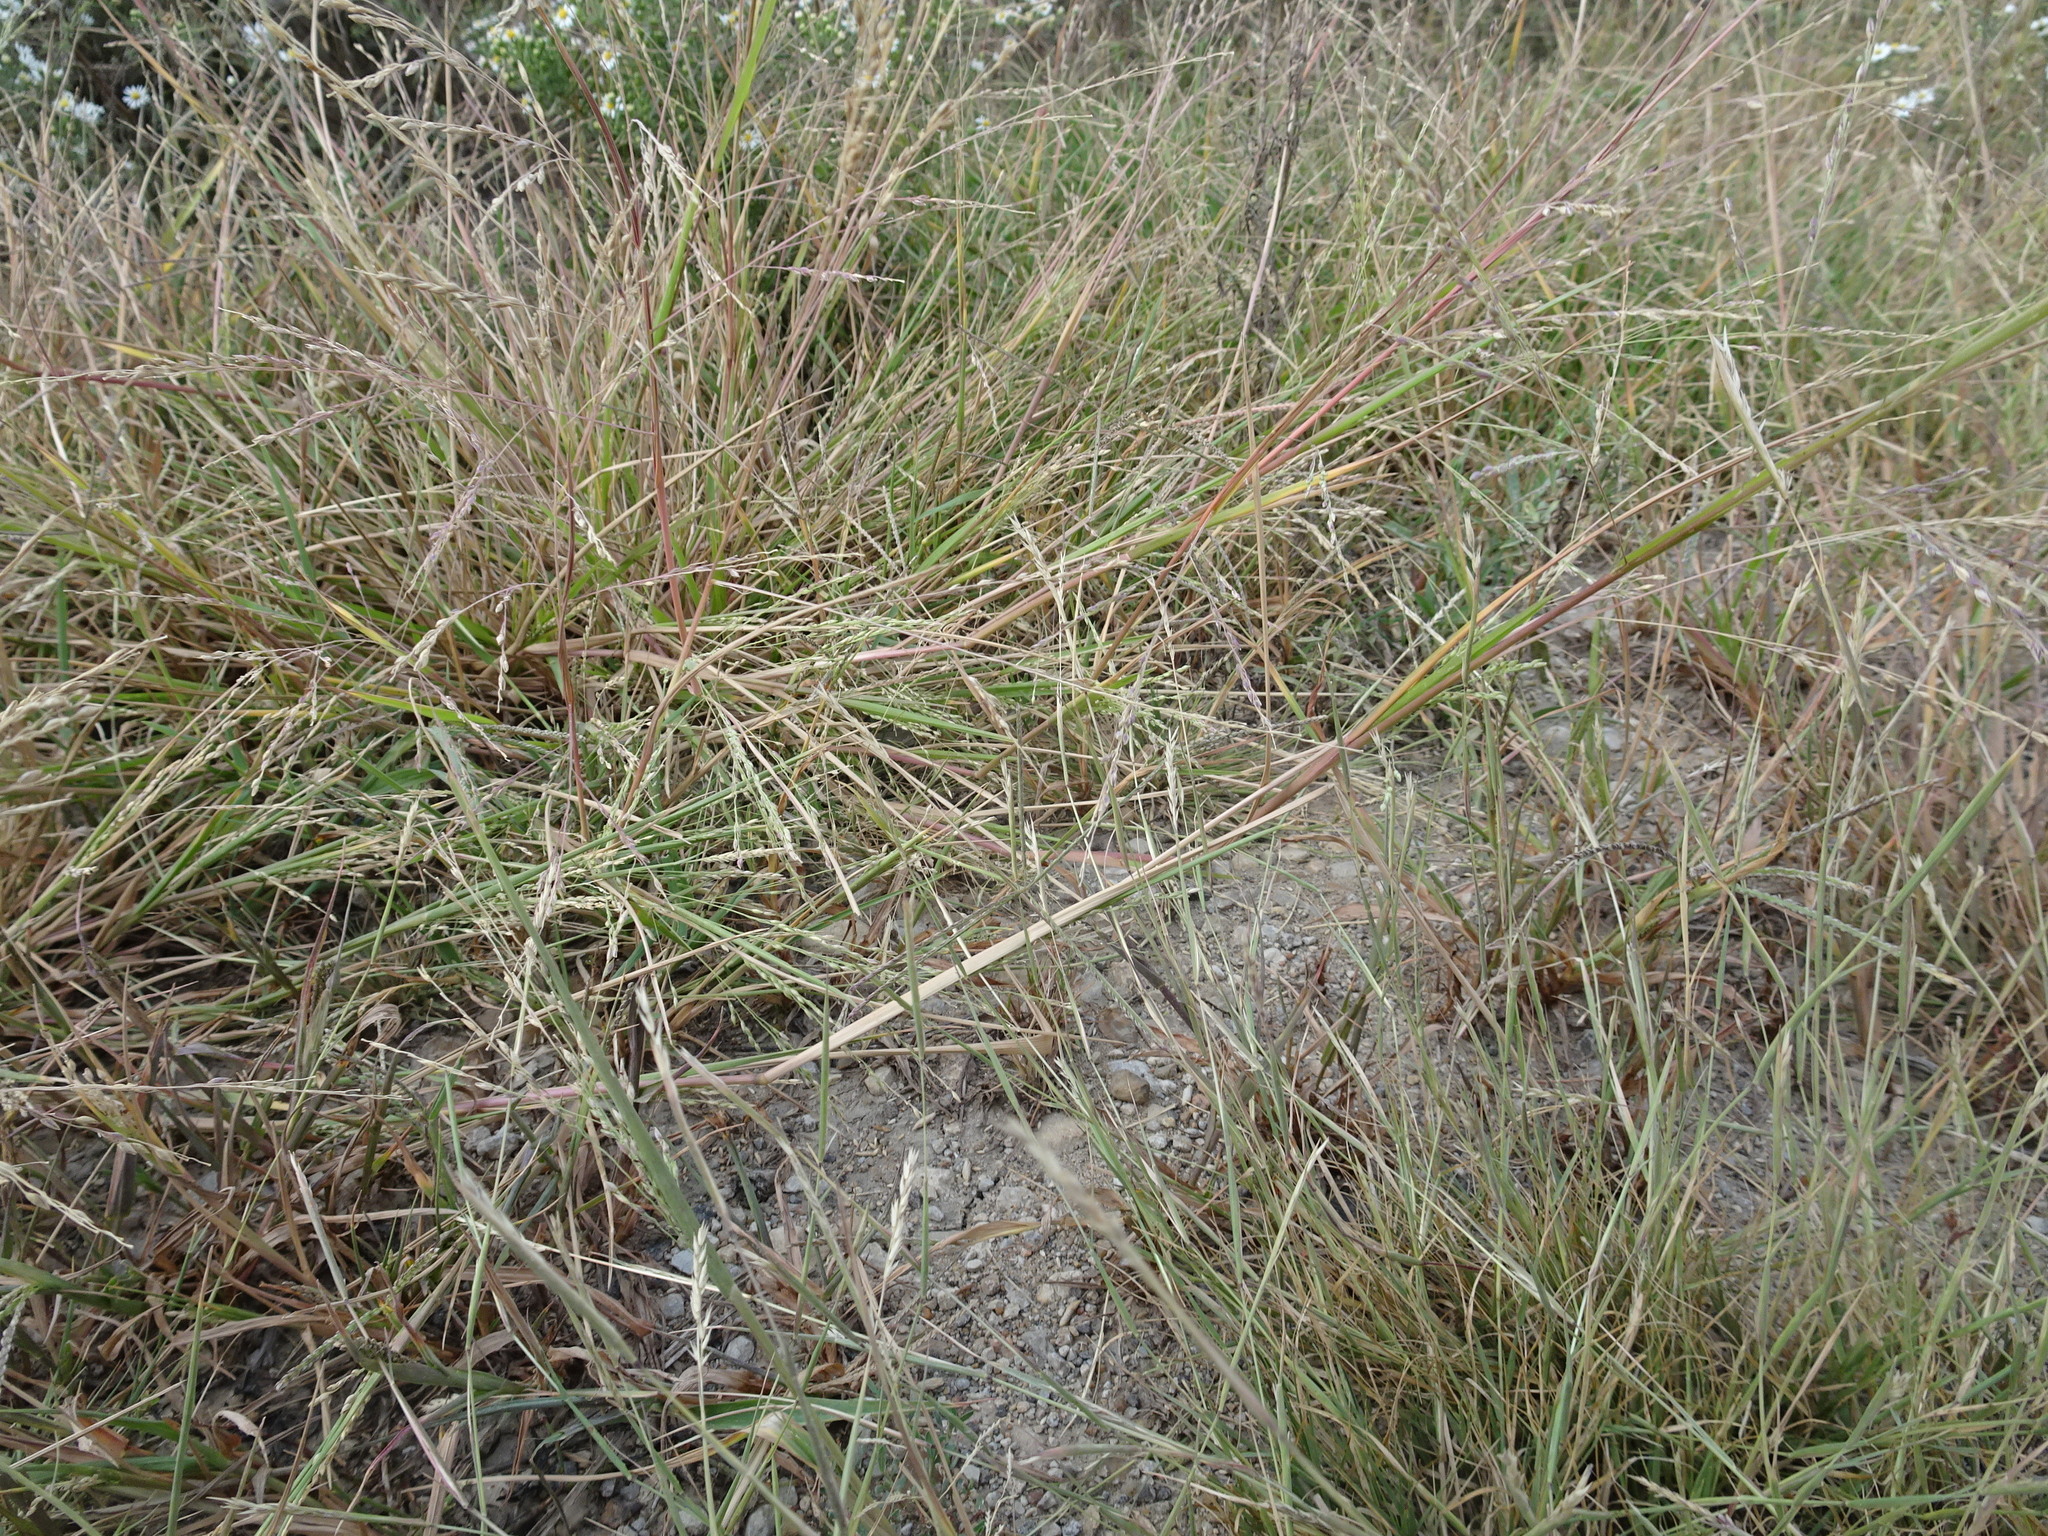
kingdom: Plantae
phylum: Tracheophyta
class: Liliopsida
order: Poales
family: Poaceae
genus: Panicum
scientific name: Panicum dichotomiflorum
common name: Autumn millet
